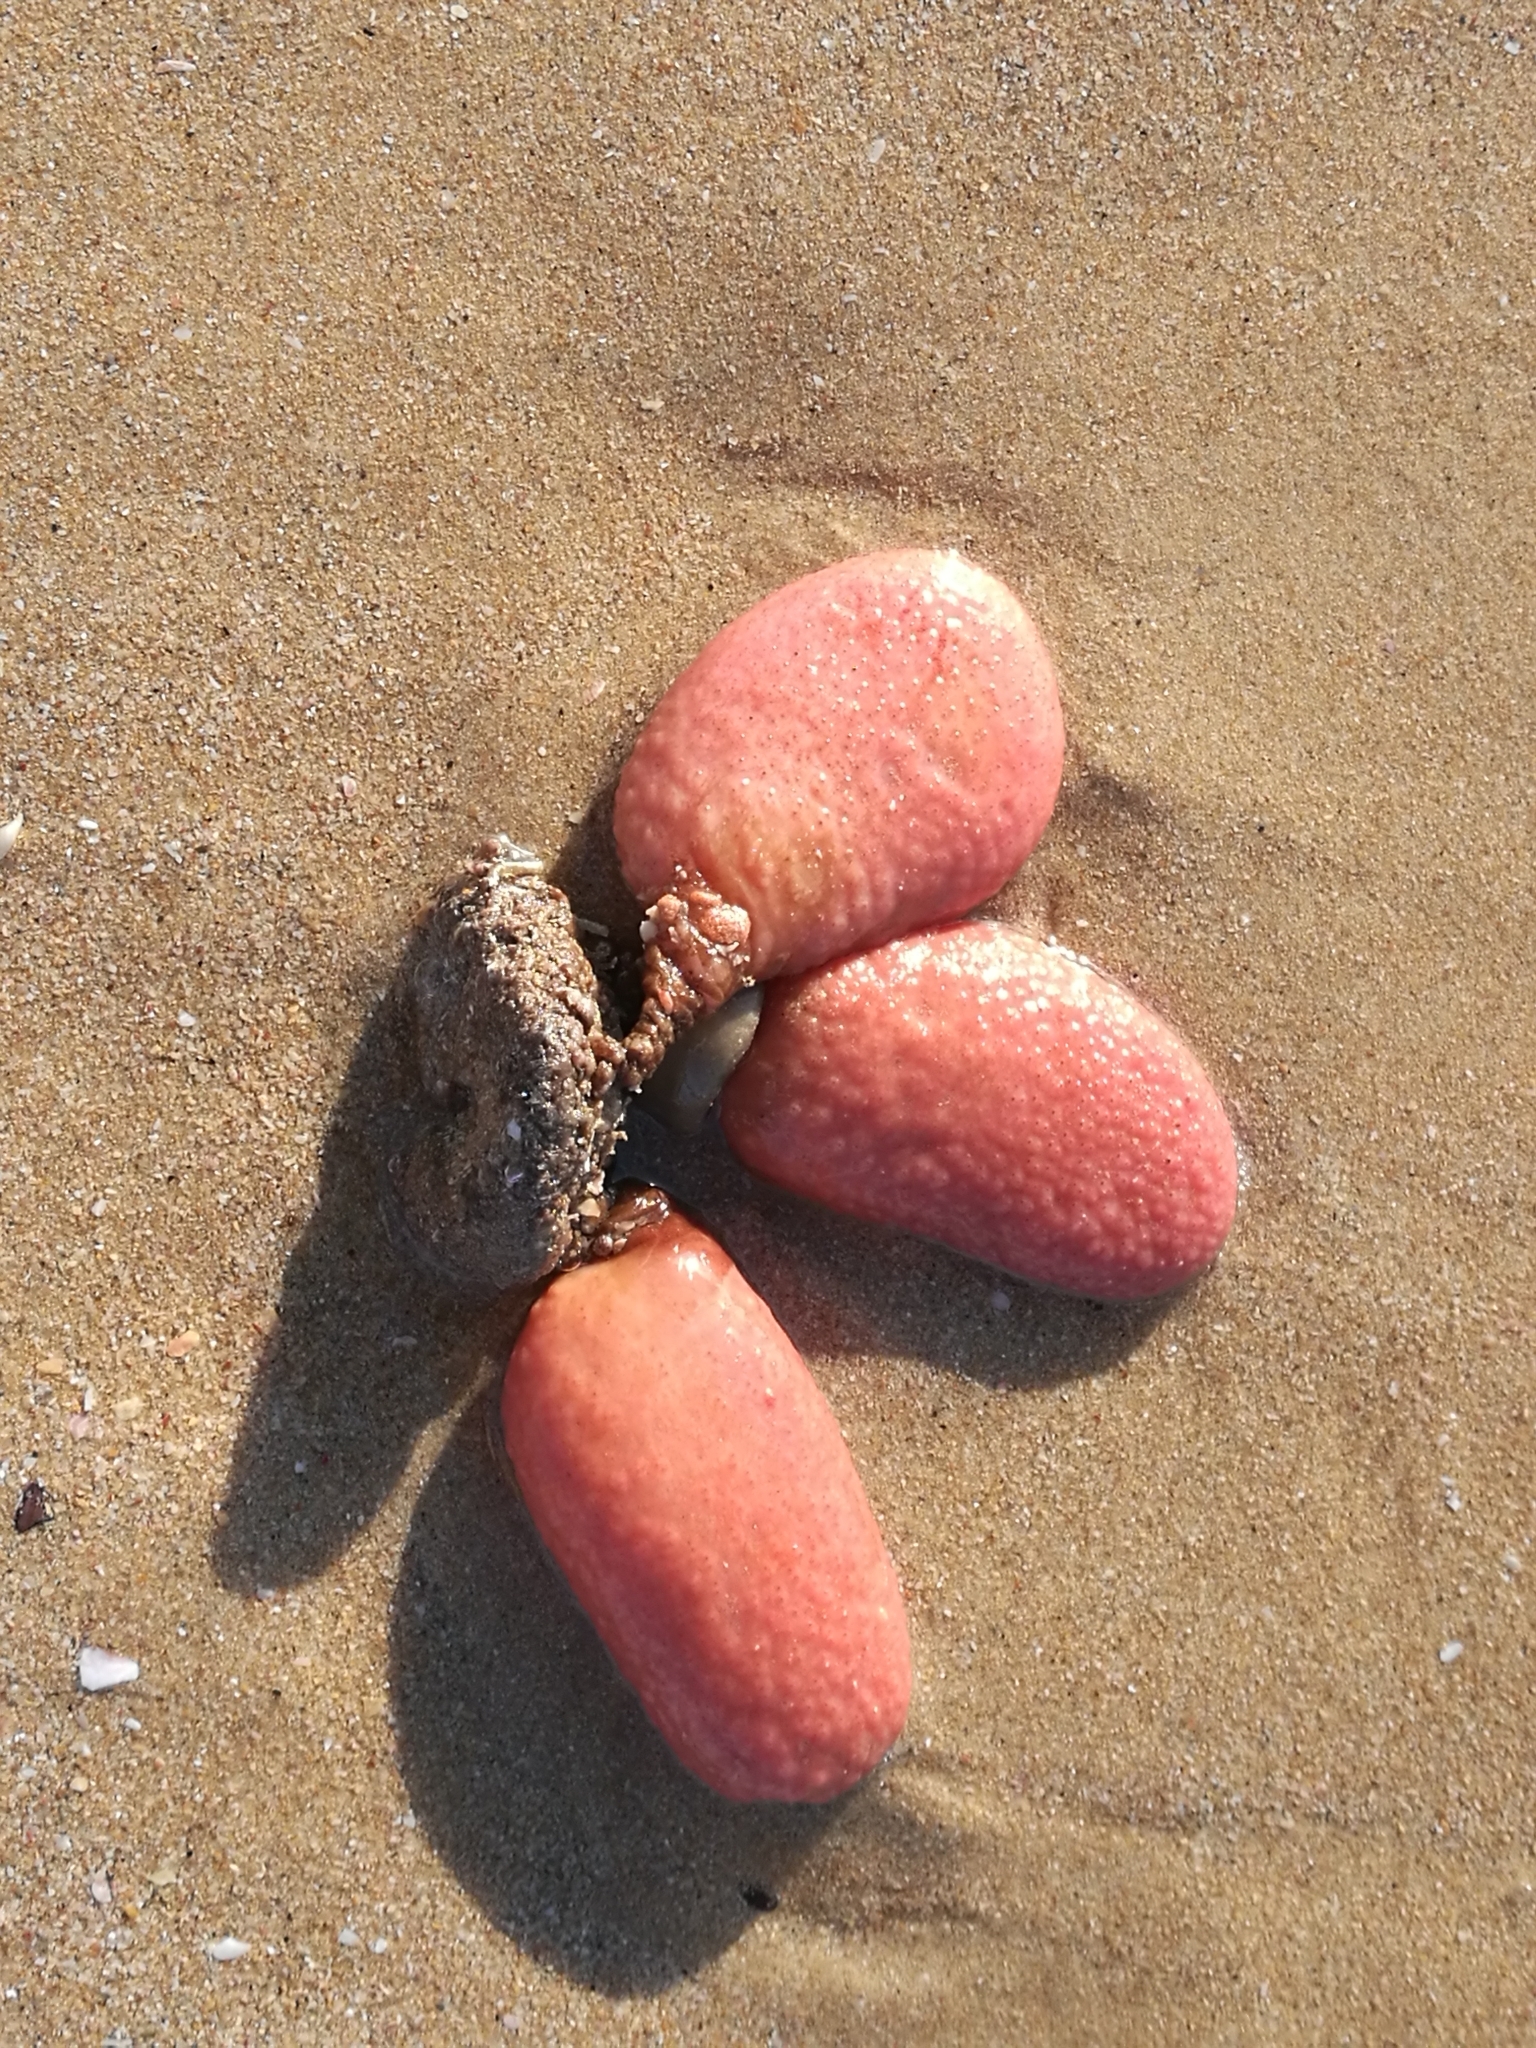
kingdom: Animalia
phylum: Chordata
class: Ascidiacea
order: Stolidobranchia
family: Styelidae
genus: Gynandrocarpa
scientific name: Gynandrocarpa placenta
